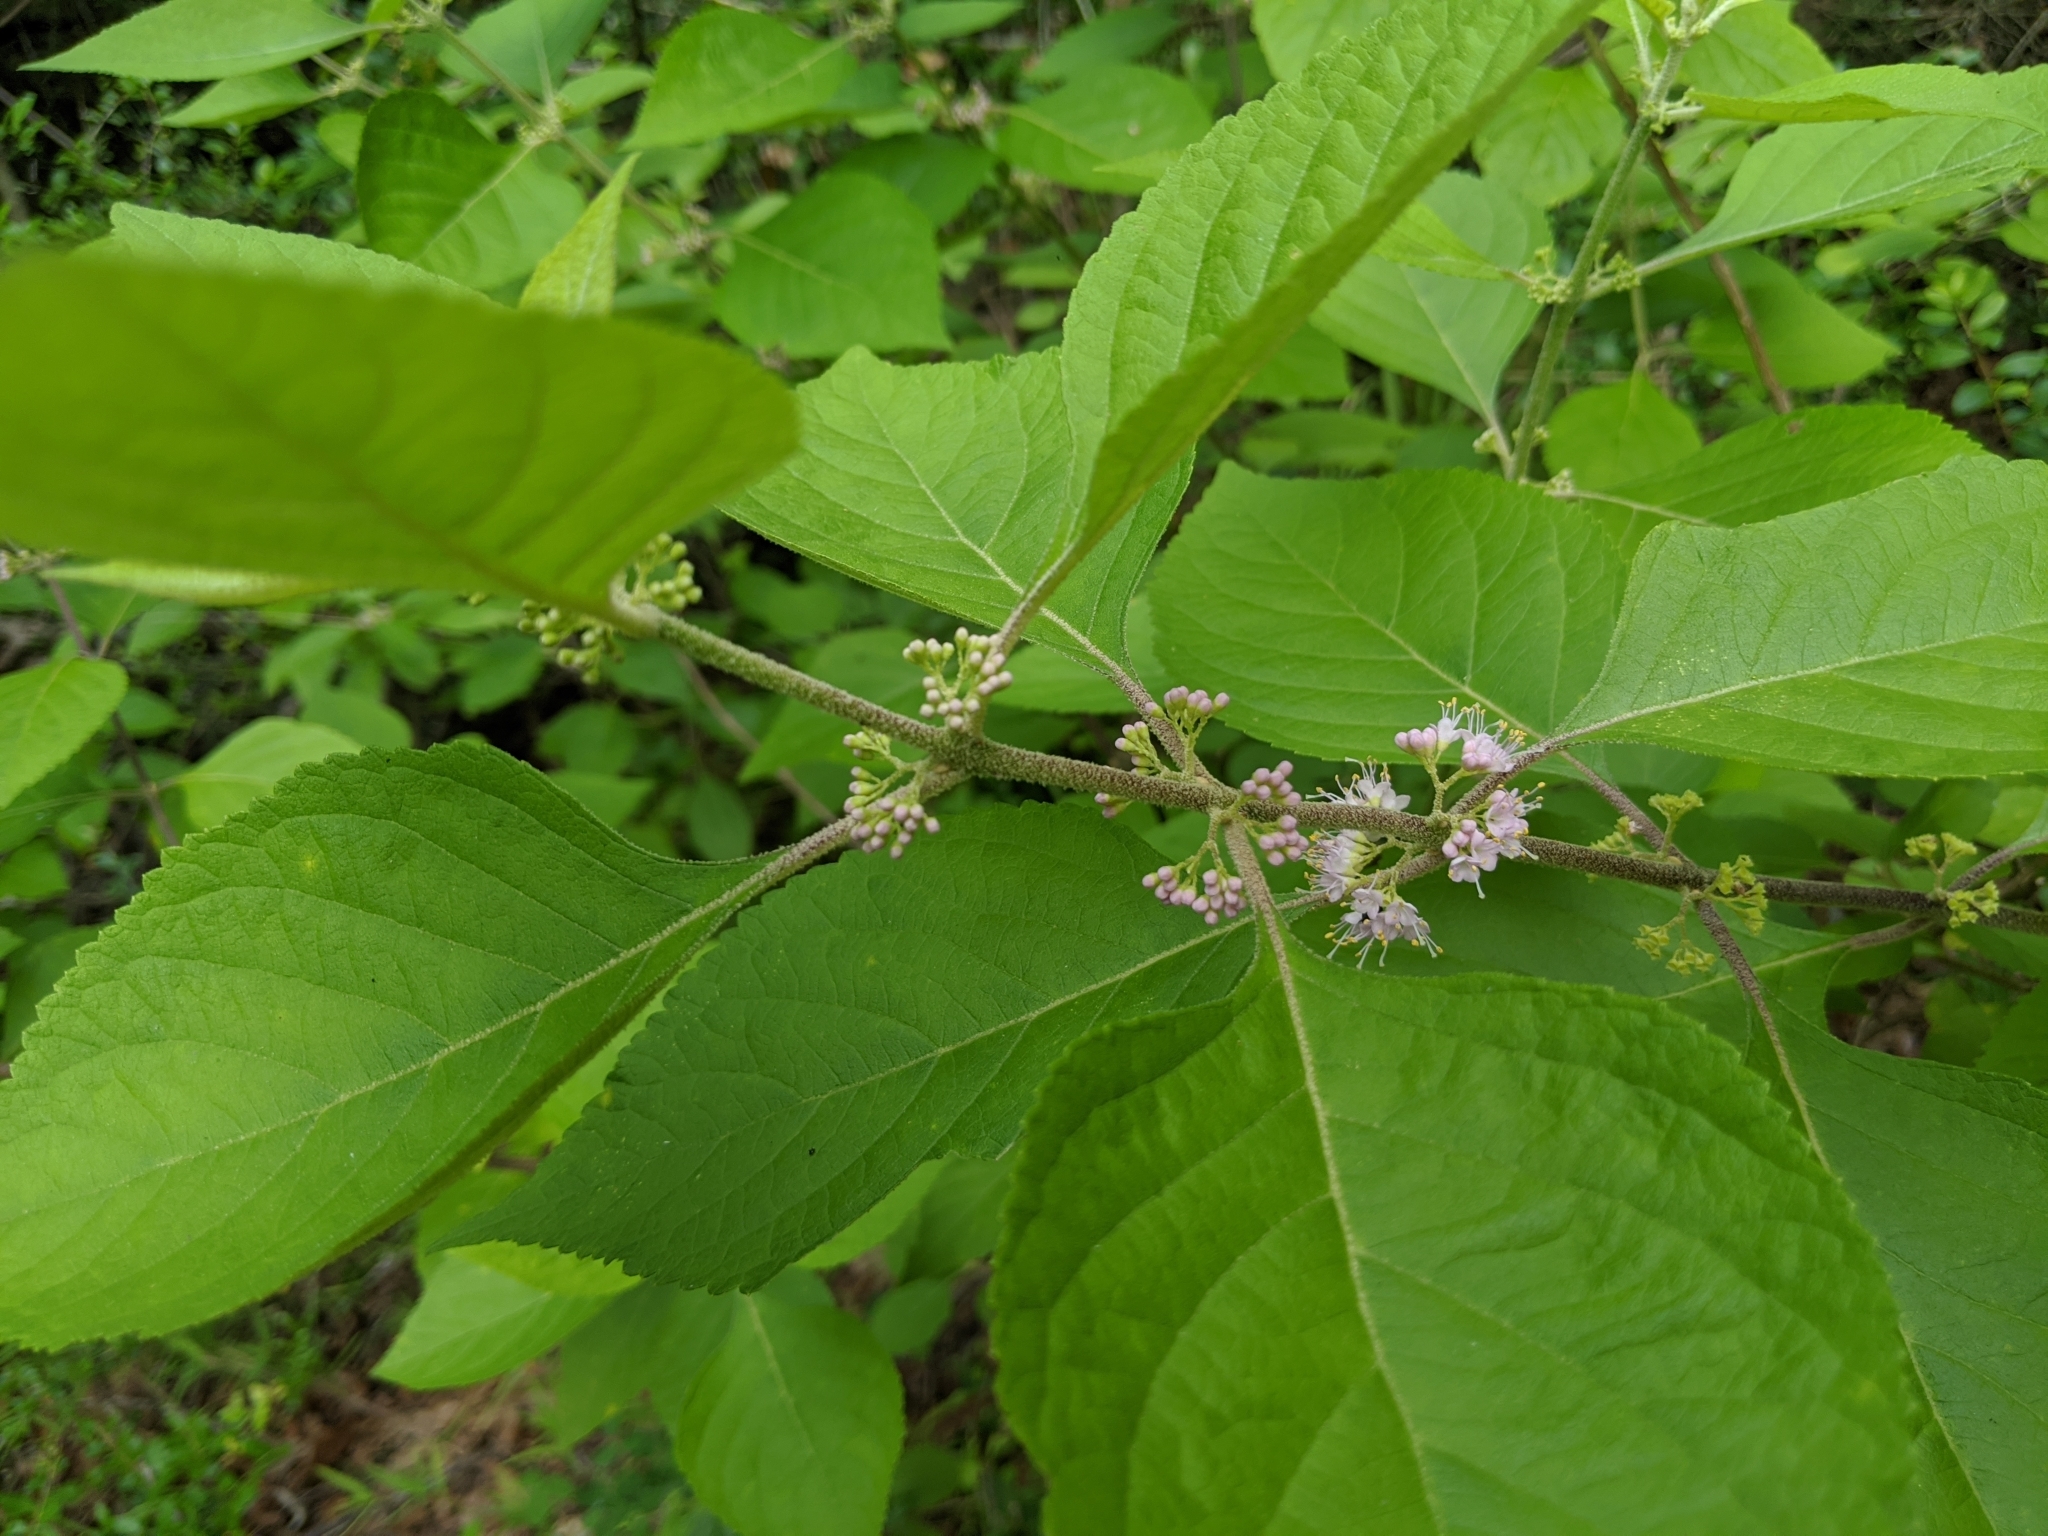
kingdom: Plantae
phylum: Tracheophyta
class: Magnoliopsida
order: Lamiales
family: Lamiaceae
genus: Callicarpa
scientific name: Callicarpa americana
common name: American beautyberry
